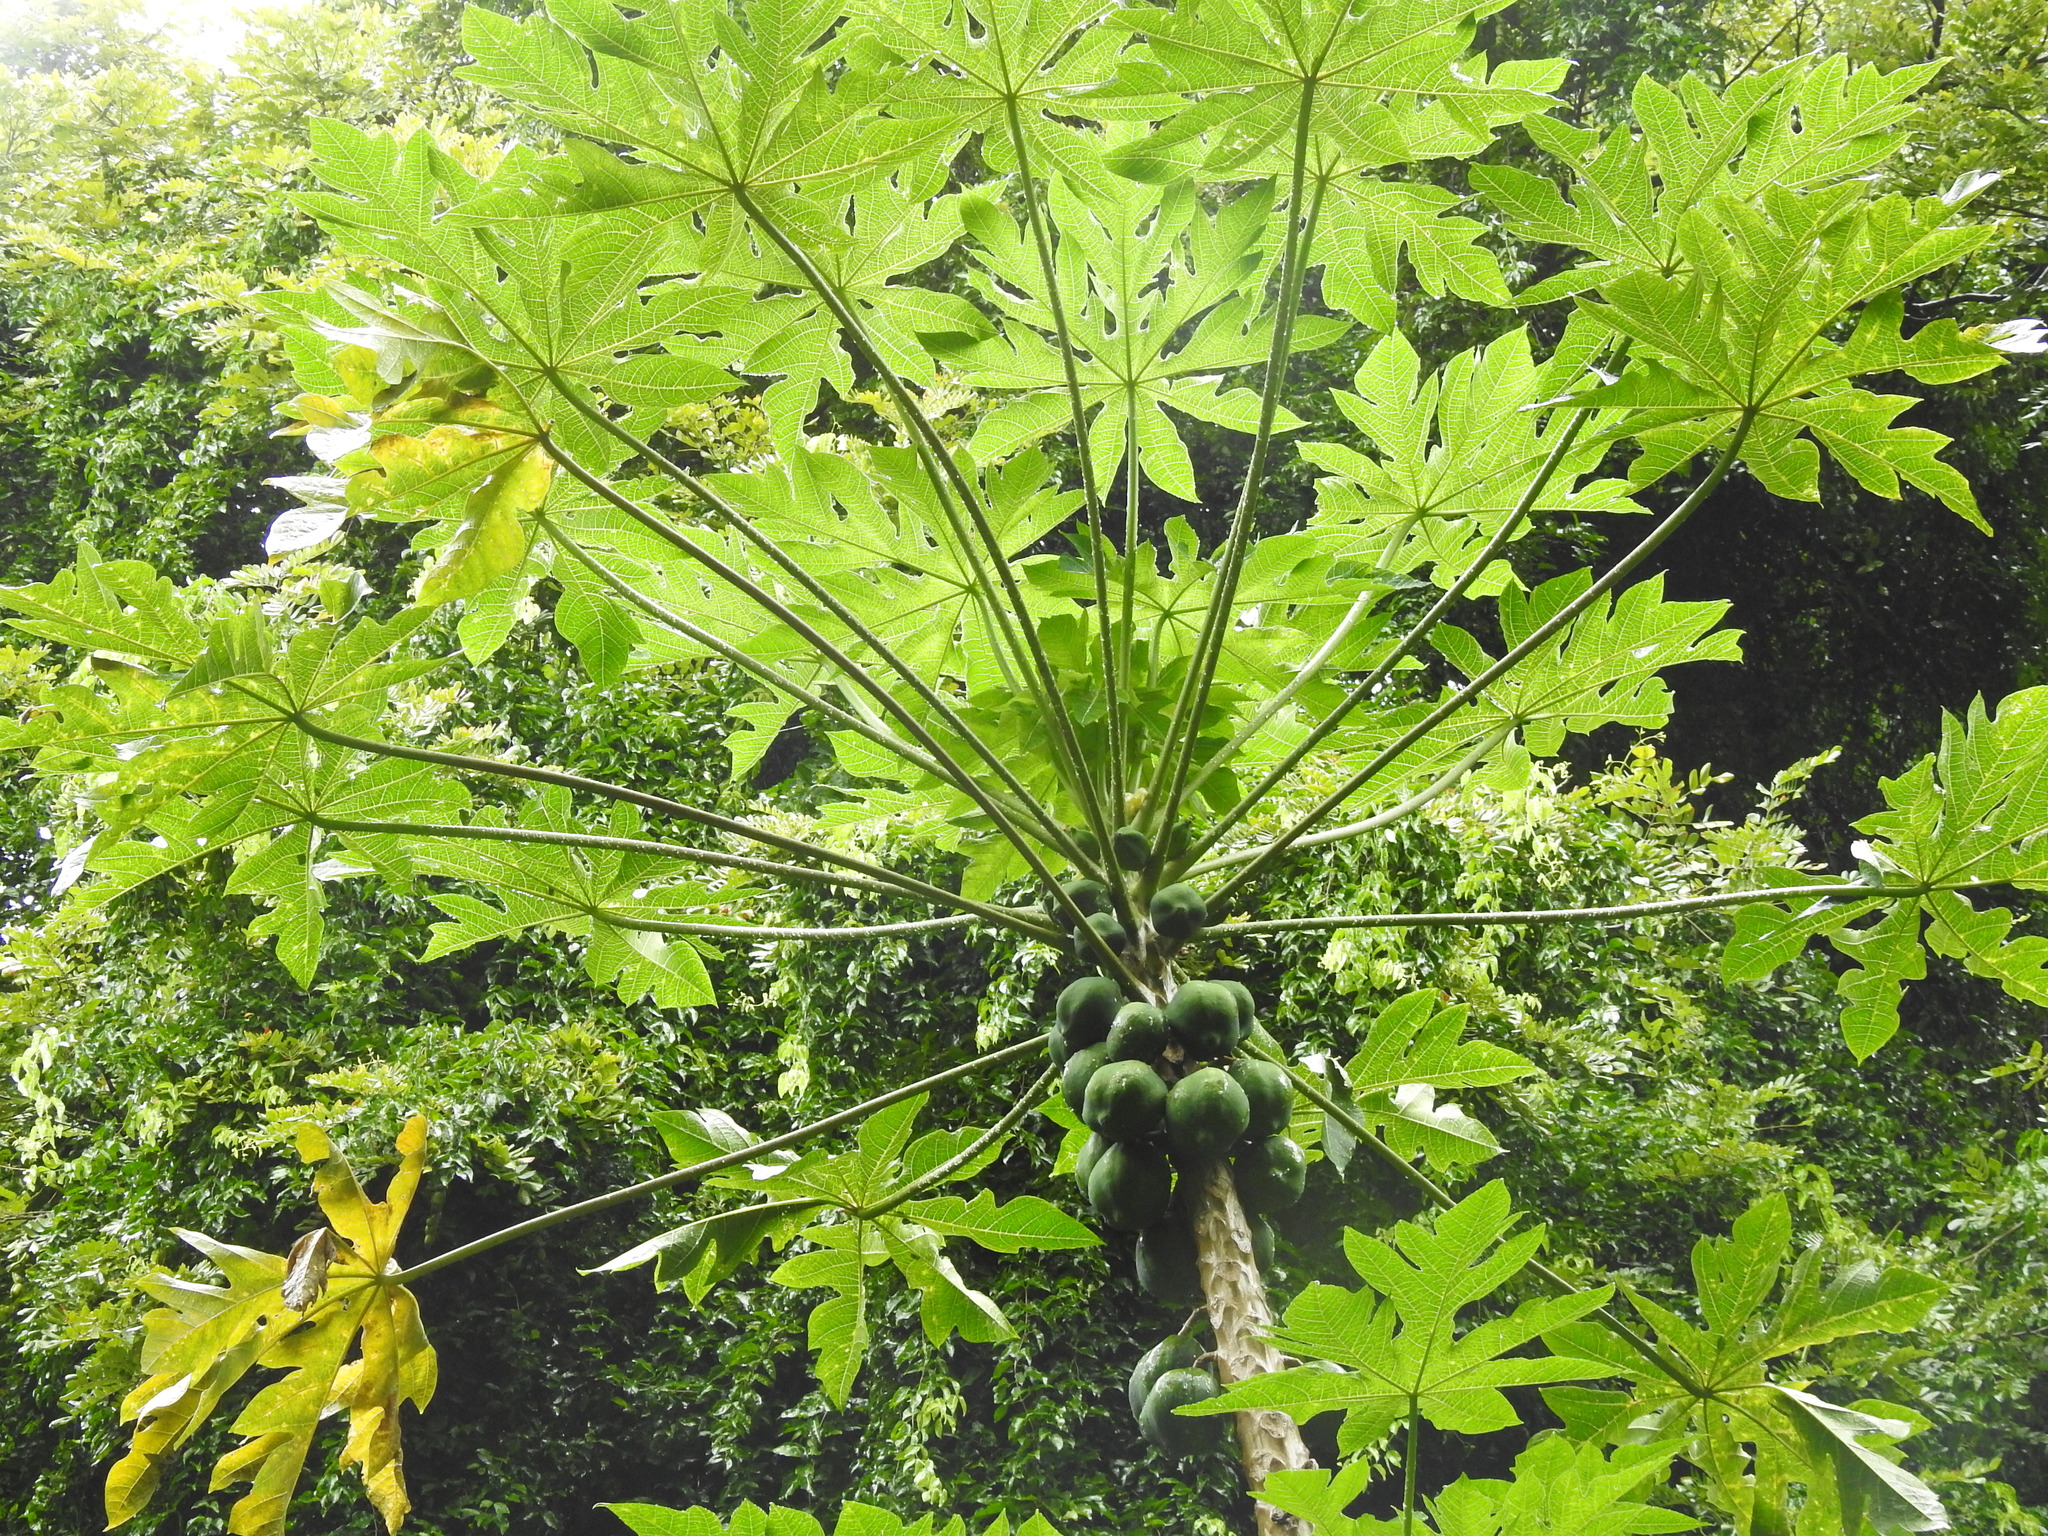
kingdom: Plantae
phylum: Tracheophyta
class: Magnoliopsida
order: Brassicales
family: Caricaceae
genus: Carica
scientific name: Carica papaya
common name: Papaya
